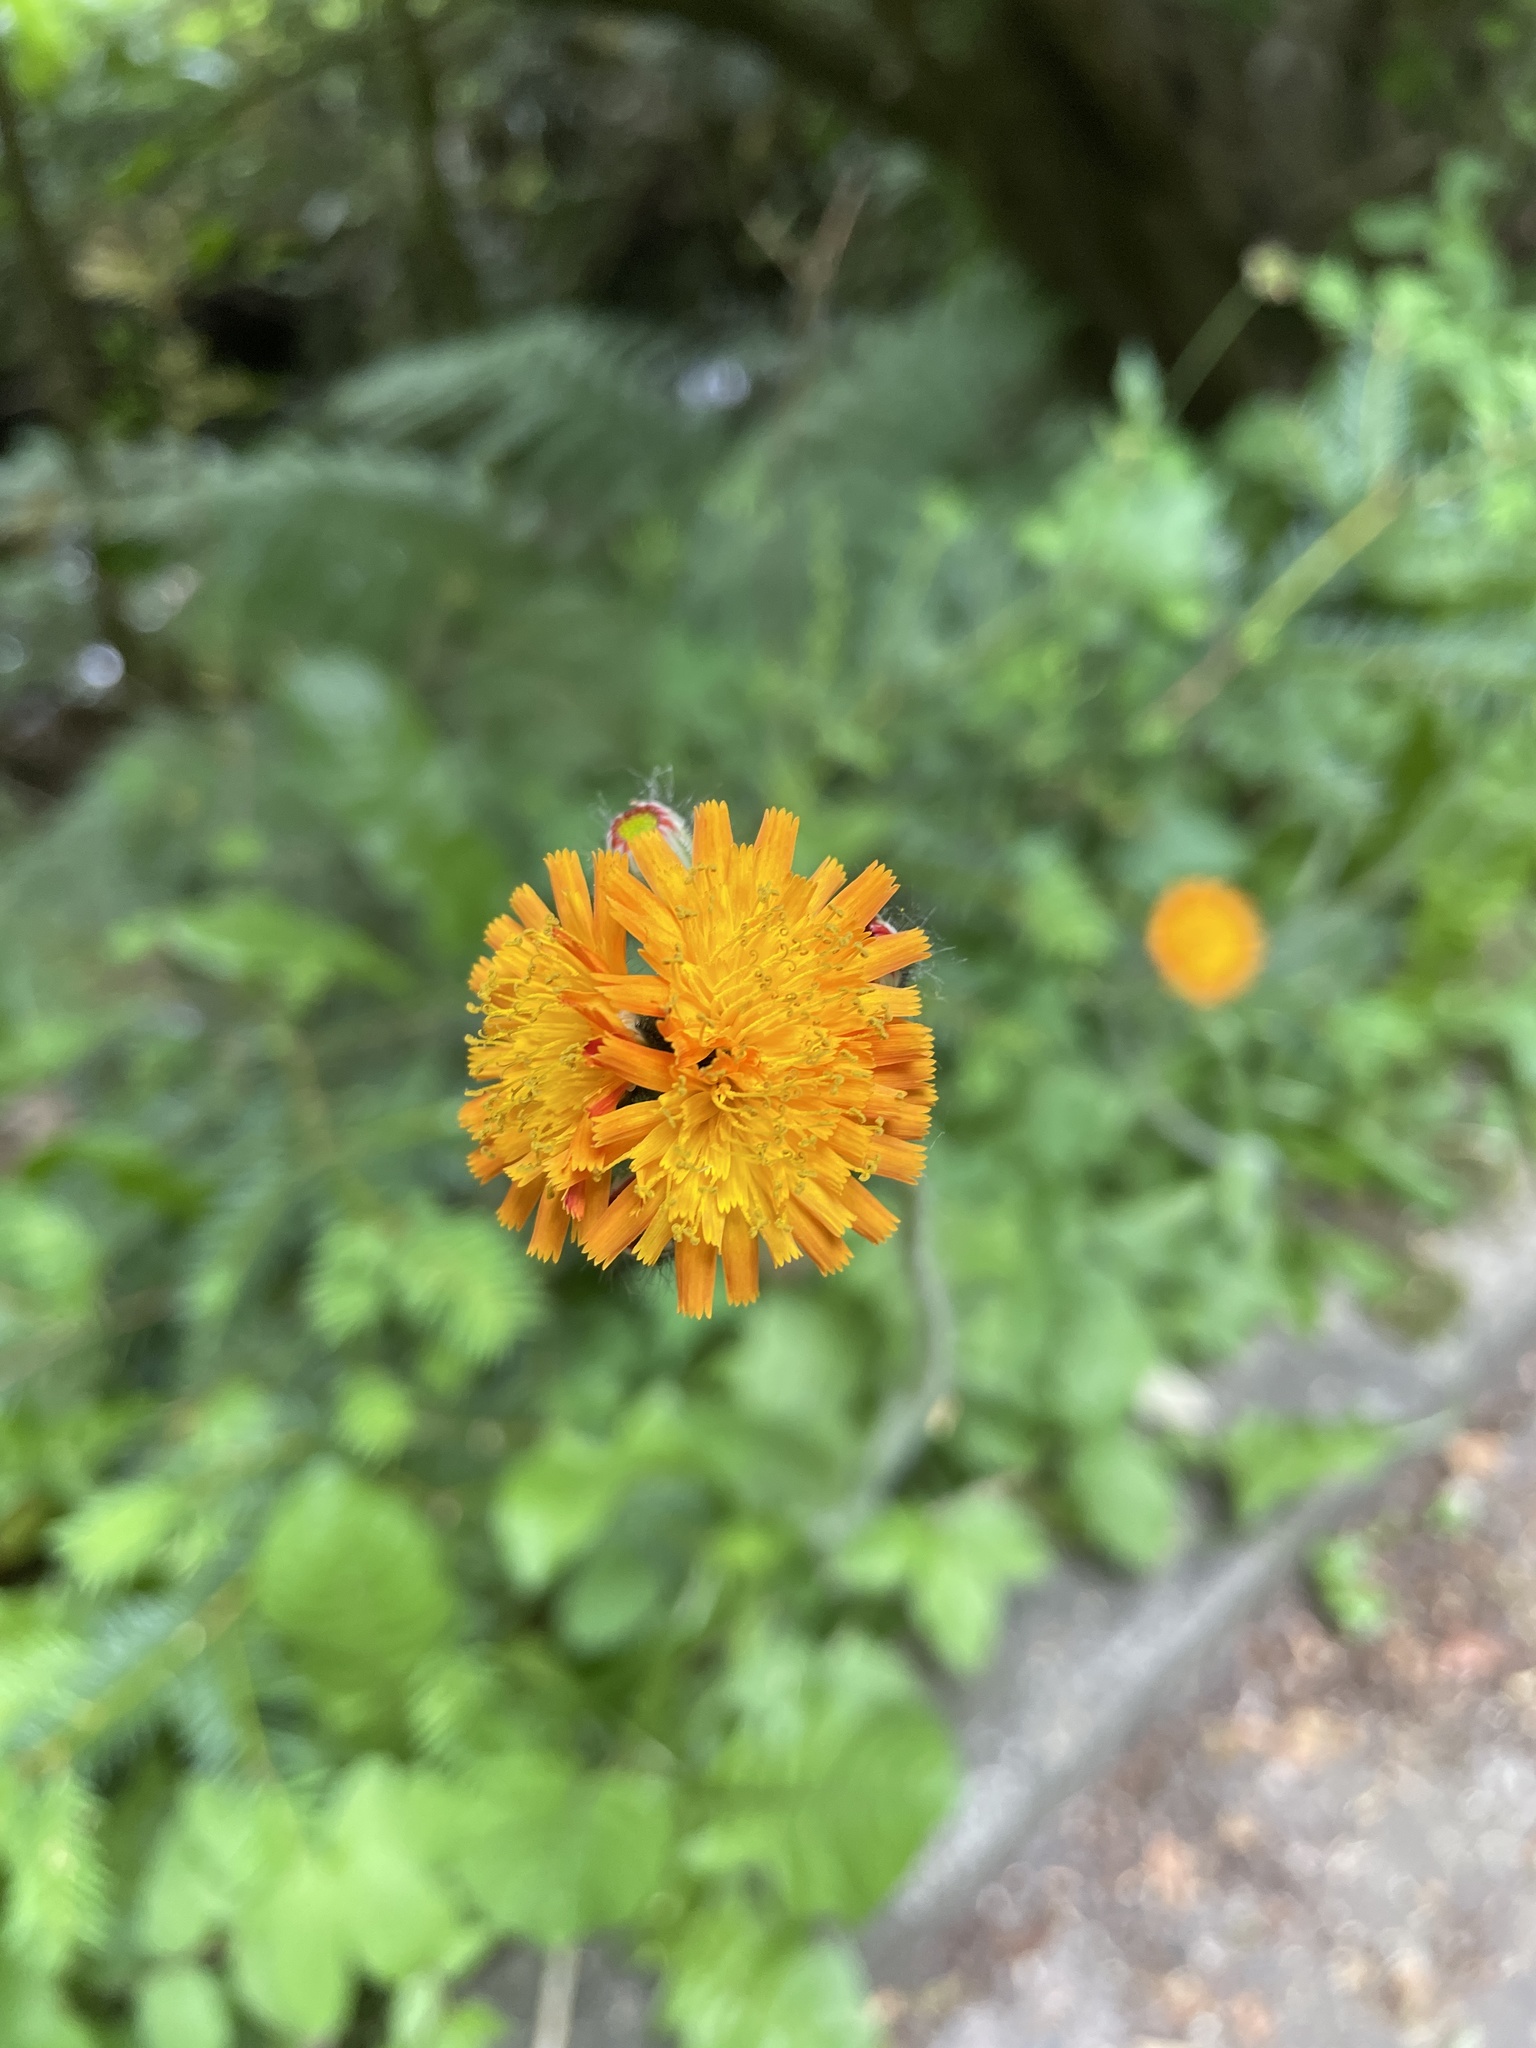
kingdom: Plantae
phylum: Tracheophyta
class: Magnoliopsida
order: Asterales
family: Asteraceae
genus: Pilosella
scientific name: Pilosella aurantiaca
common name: Fox-and-cubs
